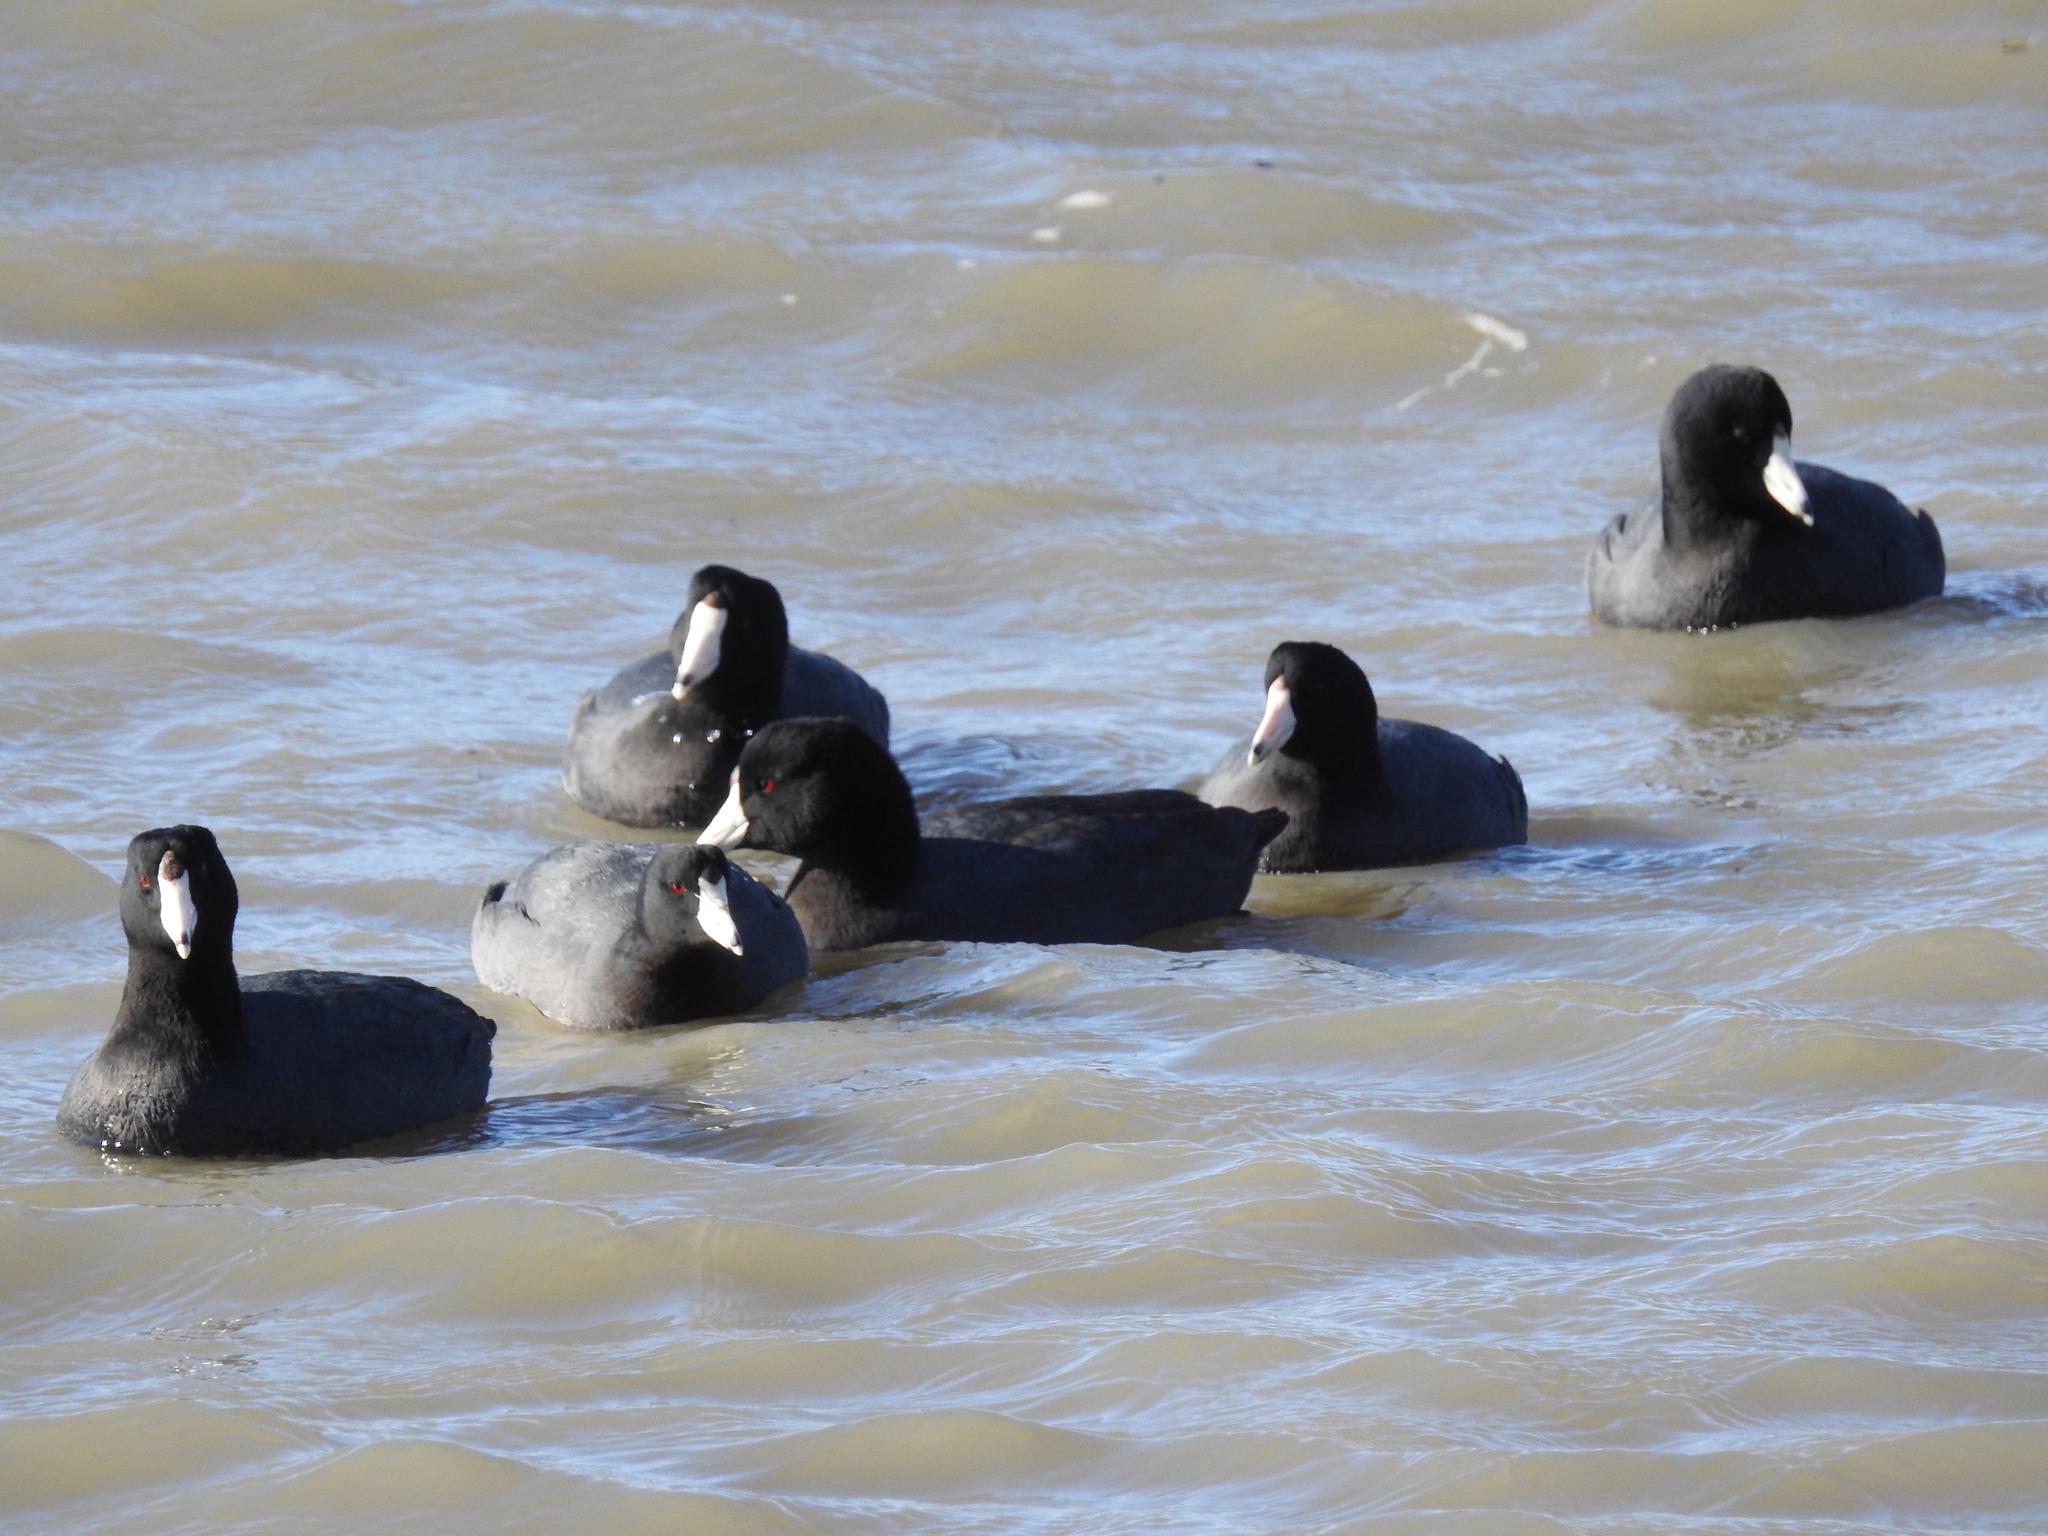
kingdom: Animalia
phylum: Chordata
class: Aves
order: Gruiformes
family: Rallidae
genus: Fulica
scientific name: Fulica americana
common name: American coot
